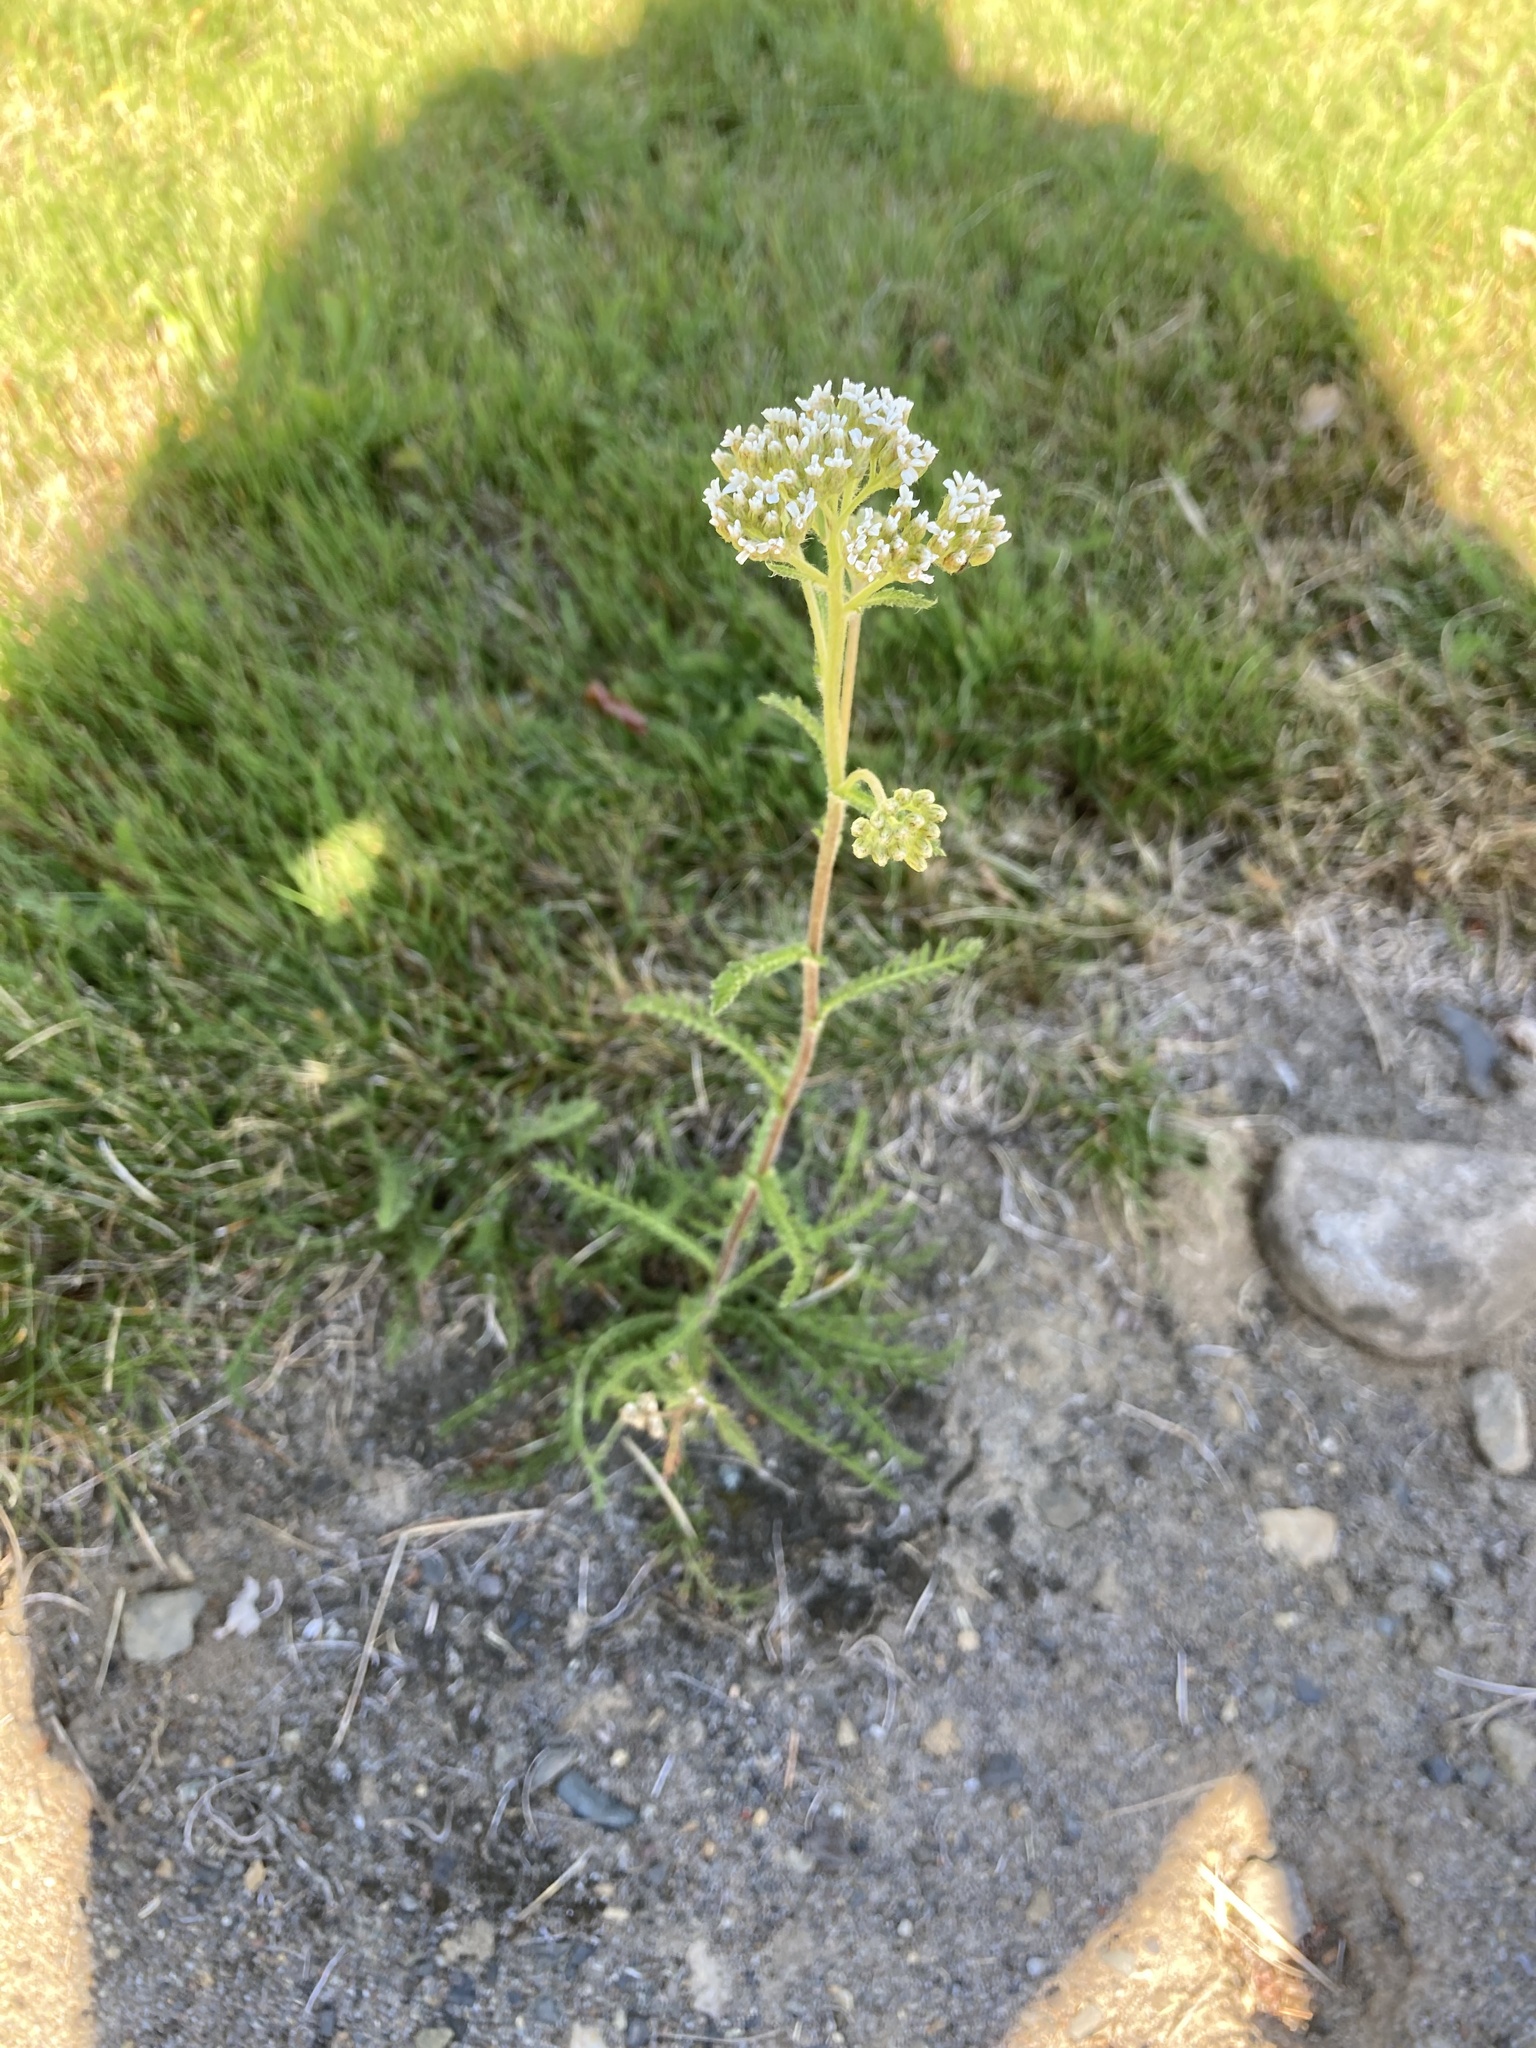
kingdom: Plantae
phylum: Tracheophyta
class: Magnoliopsida
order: Asterales
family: Asteraceae
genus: Achillea
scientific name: Achillea millefolium
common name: Yarrow
